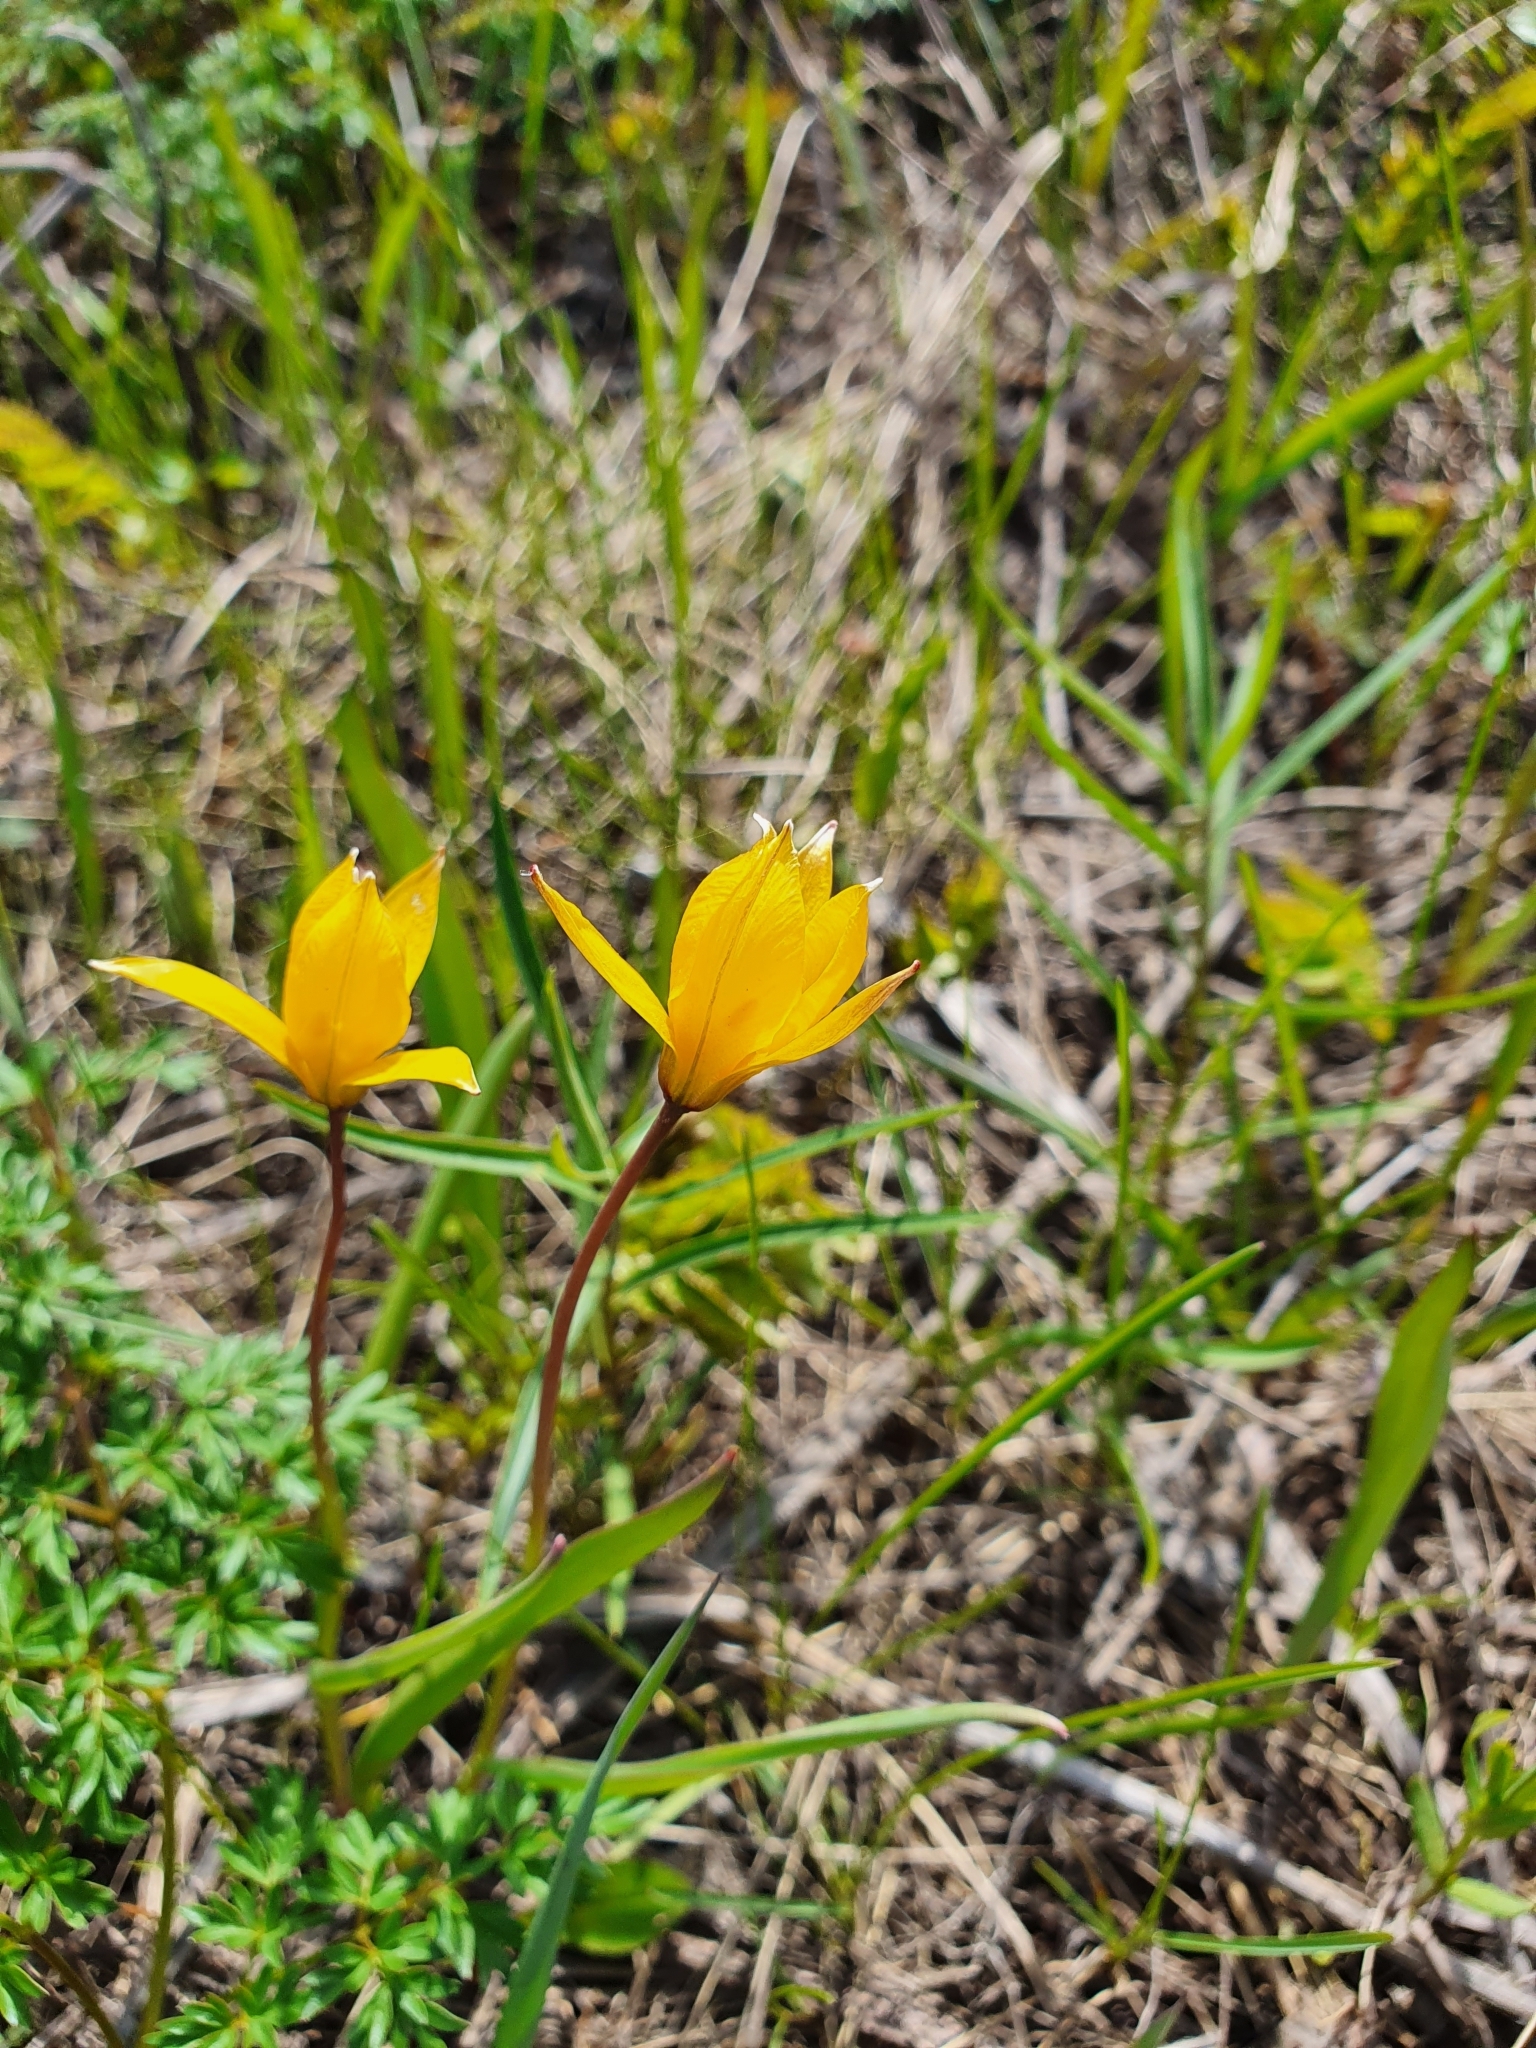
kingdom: Plantae
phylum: Tracheophyta
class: Liliopsida
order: Liliales
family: Liliaceae
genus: Tulipa
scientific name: Tulipa sylvestris
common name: Wild tulip
